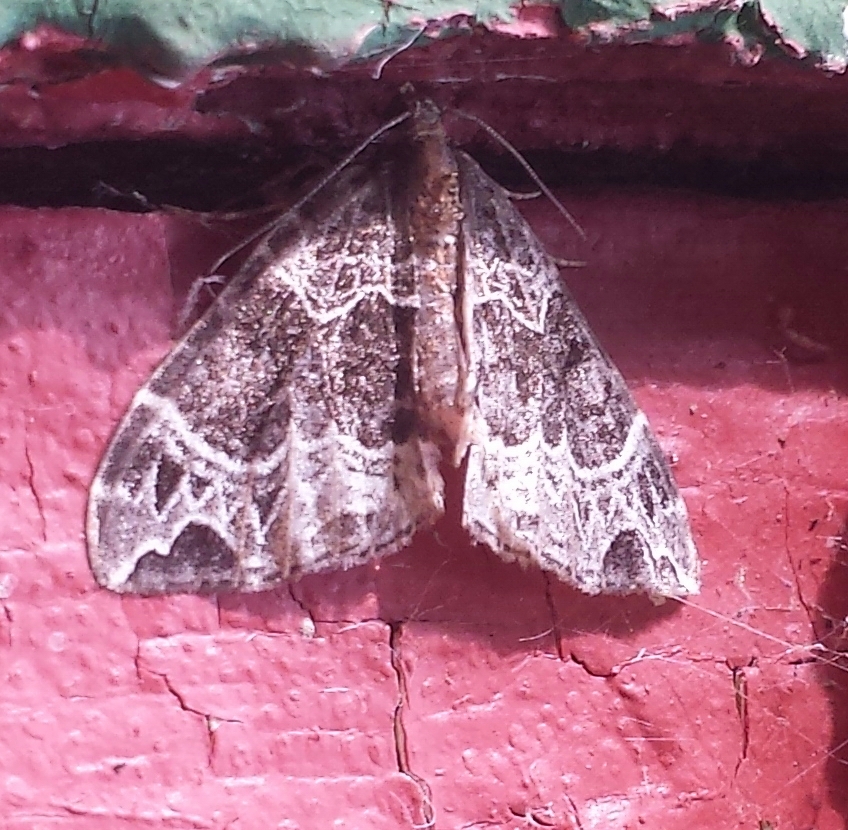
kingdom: Animalia
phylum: Arthropoda
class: Insecta
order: Lepidoptera
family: Geometridae
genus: Ecliptopera
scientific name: Ecliptopera silaceata
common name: Small phoenix
